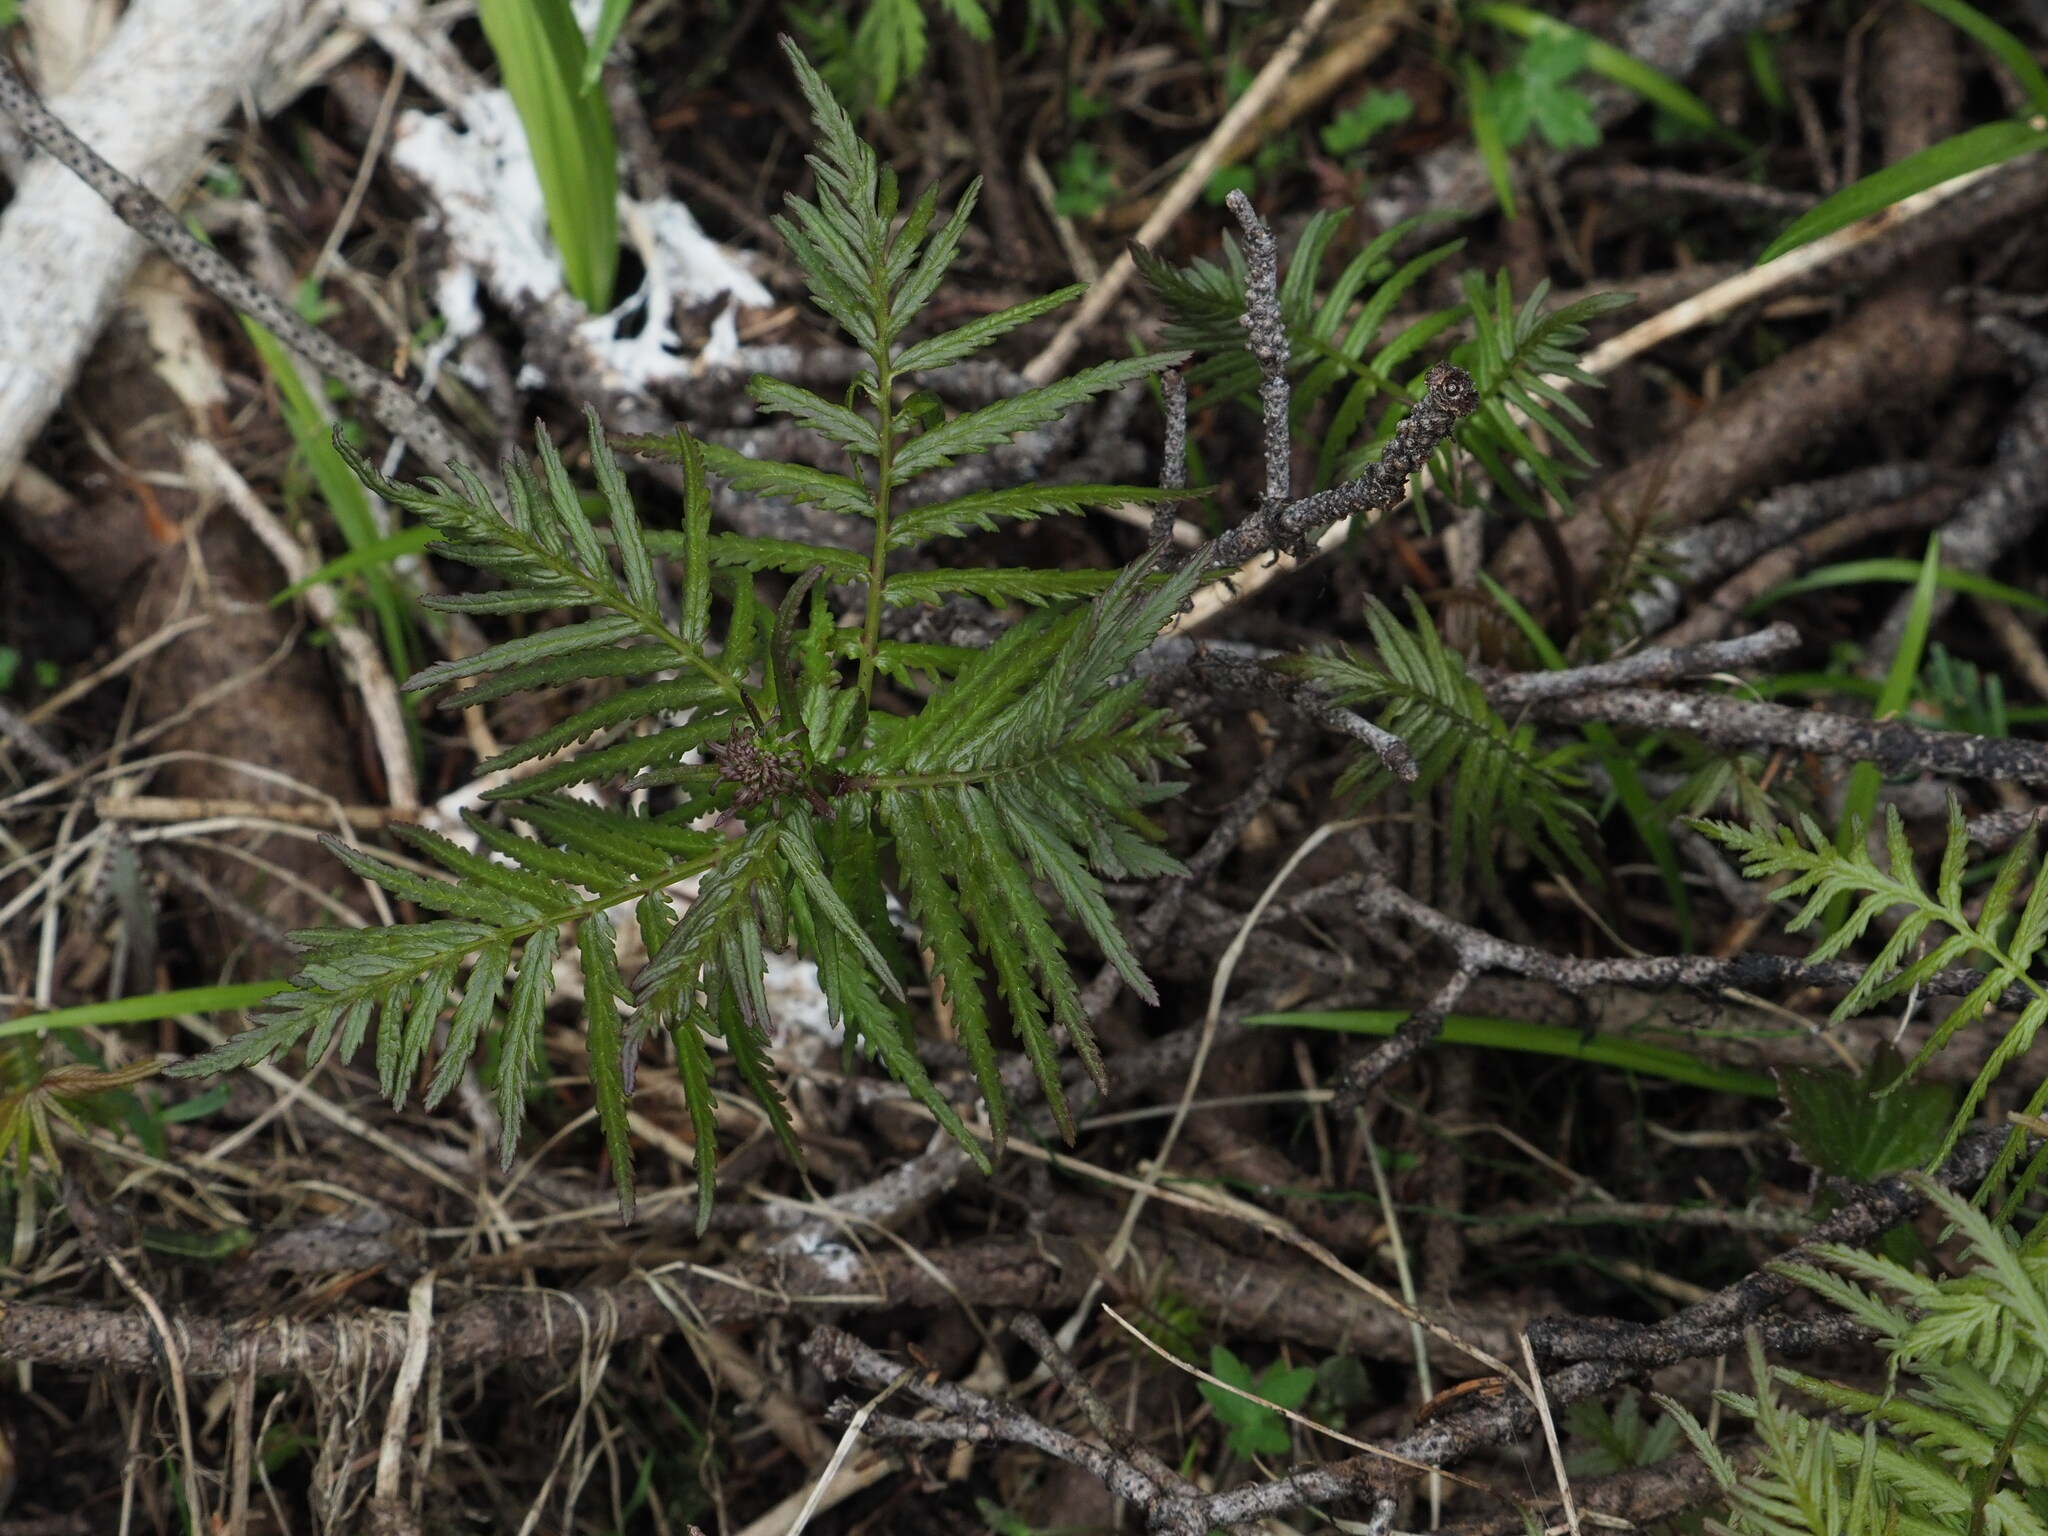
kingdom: Plantae
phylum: Tracheophyta
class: Magnoliopsida
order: Lamiales
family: Orobanchaceae
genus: Pedicularis
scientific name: Pedicularis bracteosa
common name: Bracted lousewort
